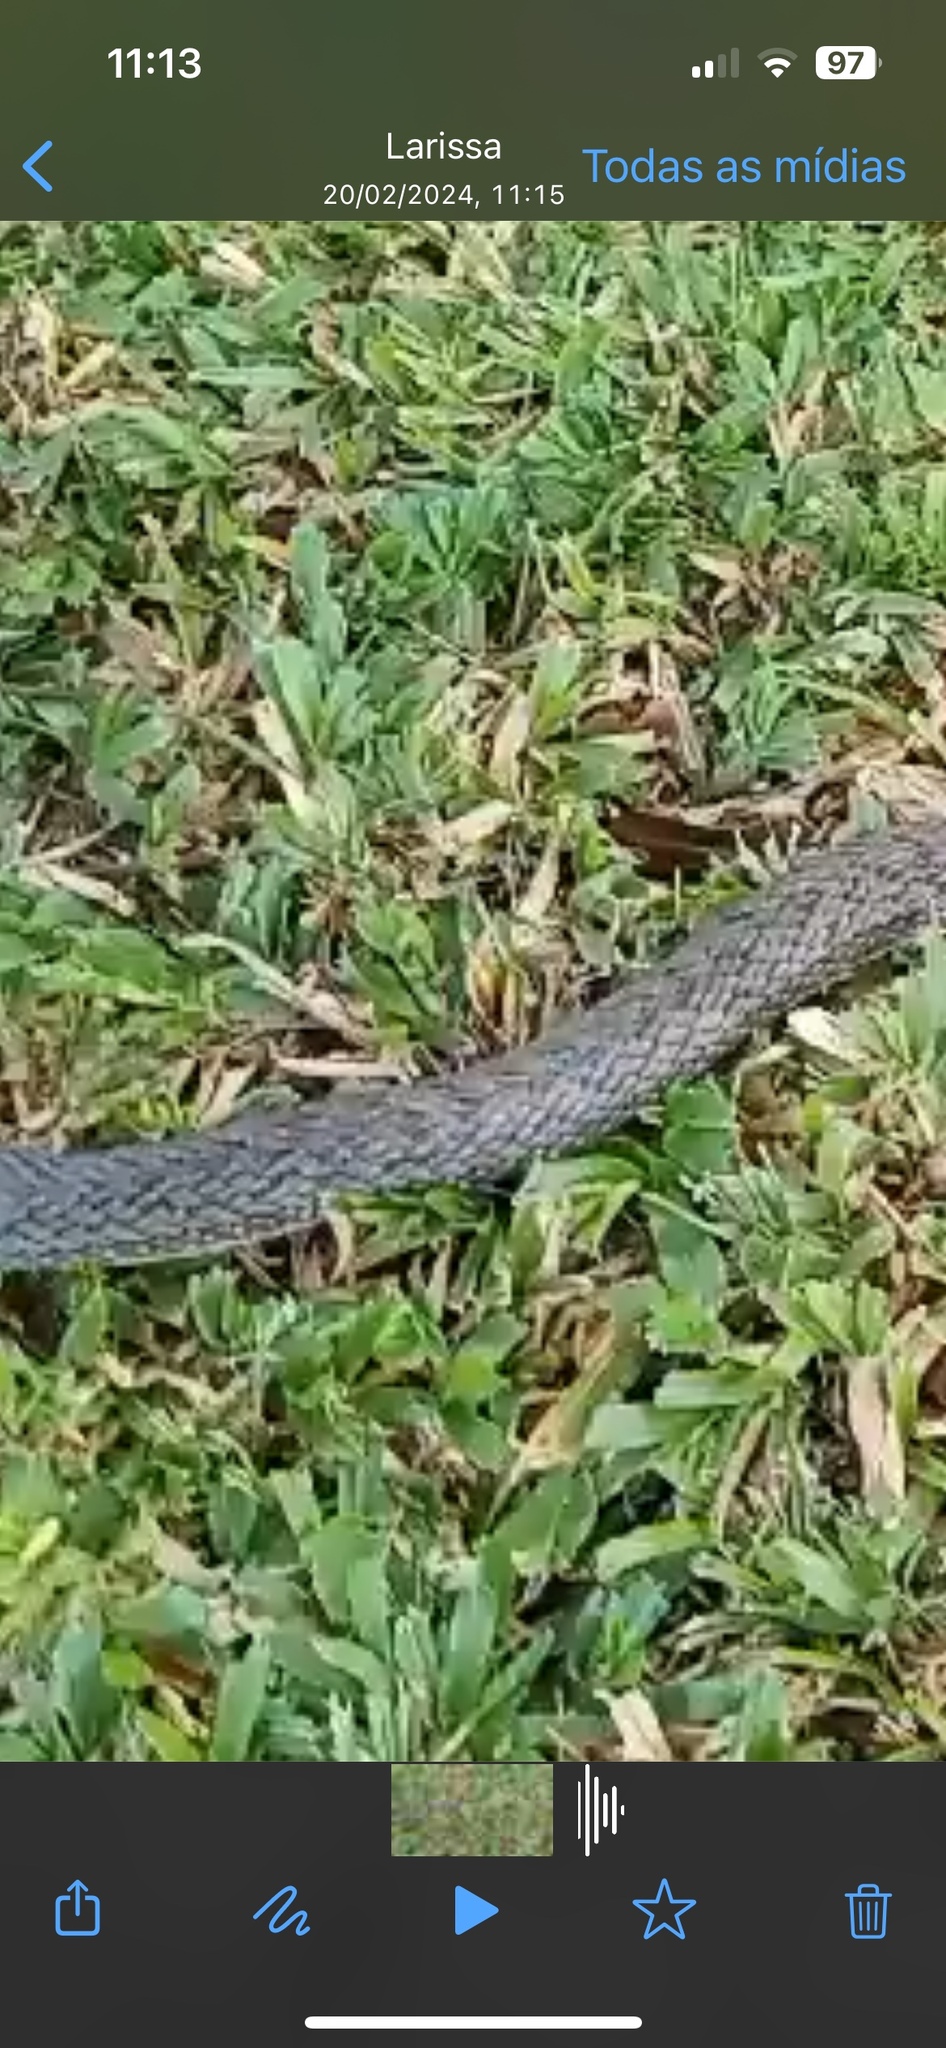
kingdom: Animalia
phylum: Chordata
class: Squamata
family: Colubridae
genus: Philodryas
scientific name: Philodryas nattereri
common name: Paraguay green racer
